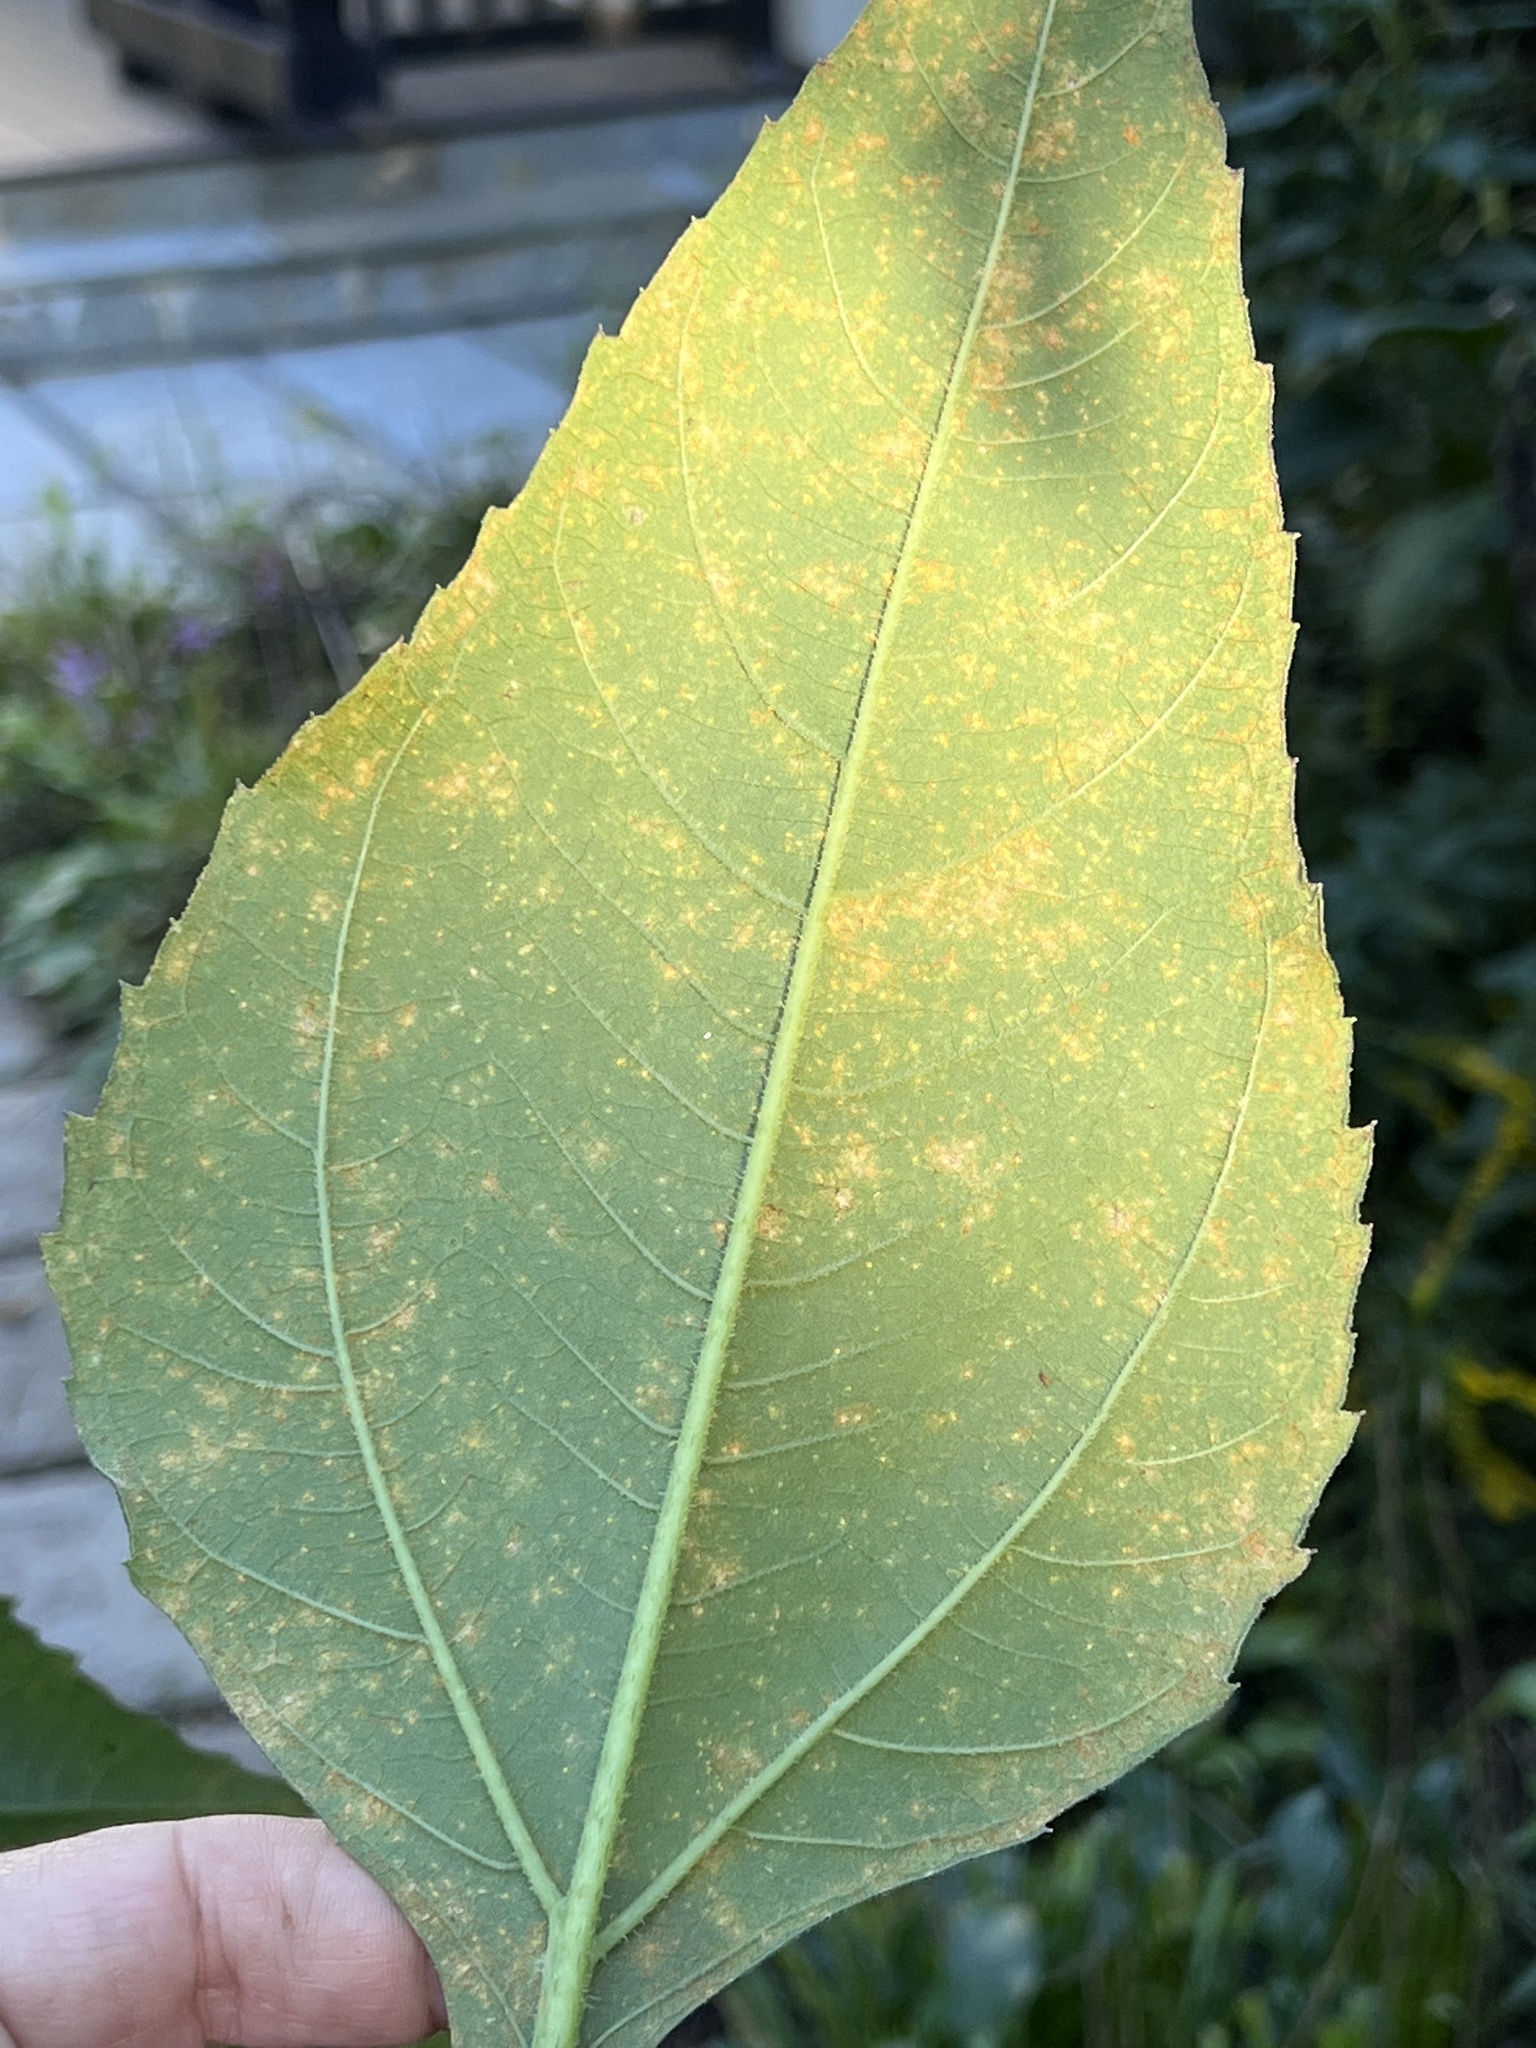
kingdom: Fungi
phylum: Basidiomycota
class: Pucciniomycetes
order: Pucciniales
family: Coleosporiaceae
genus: Coleosporium
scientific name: Coleosporium helianthi
